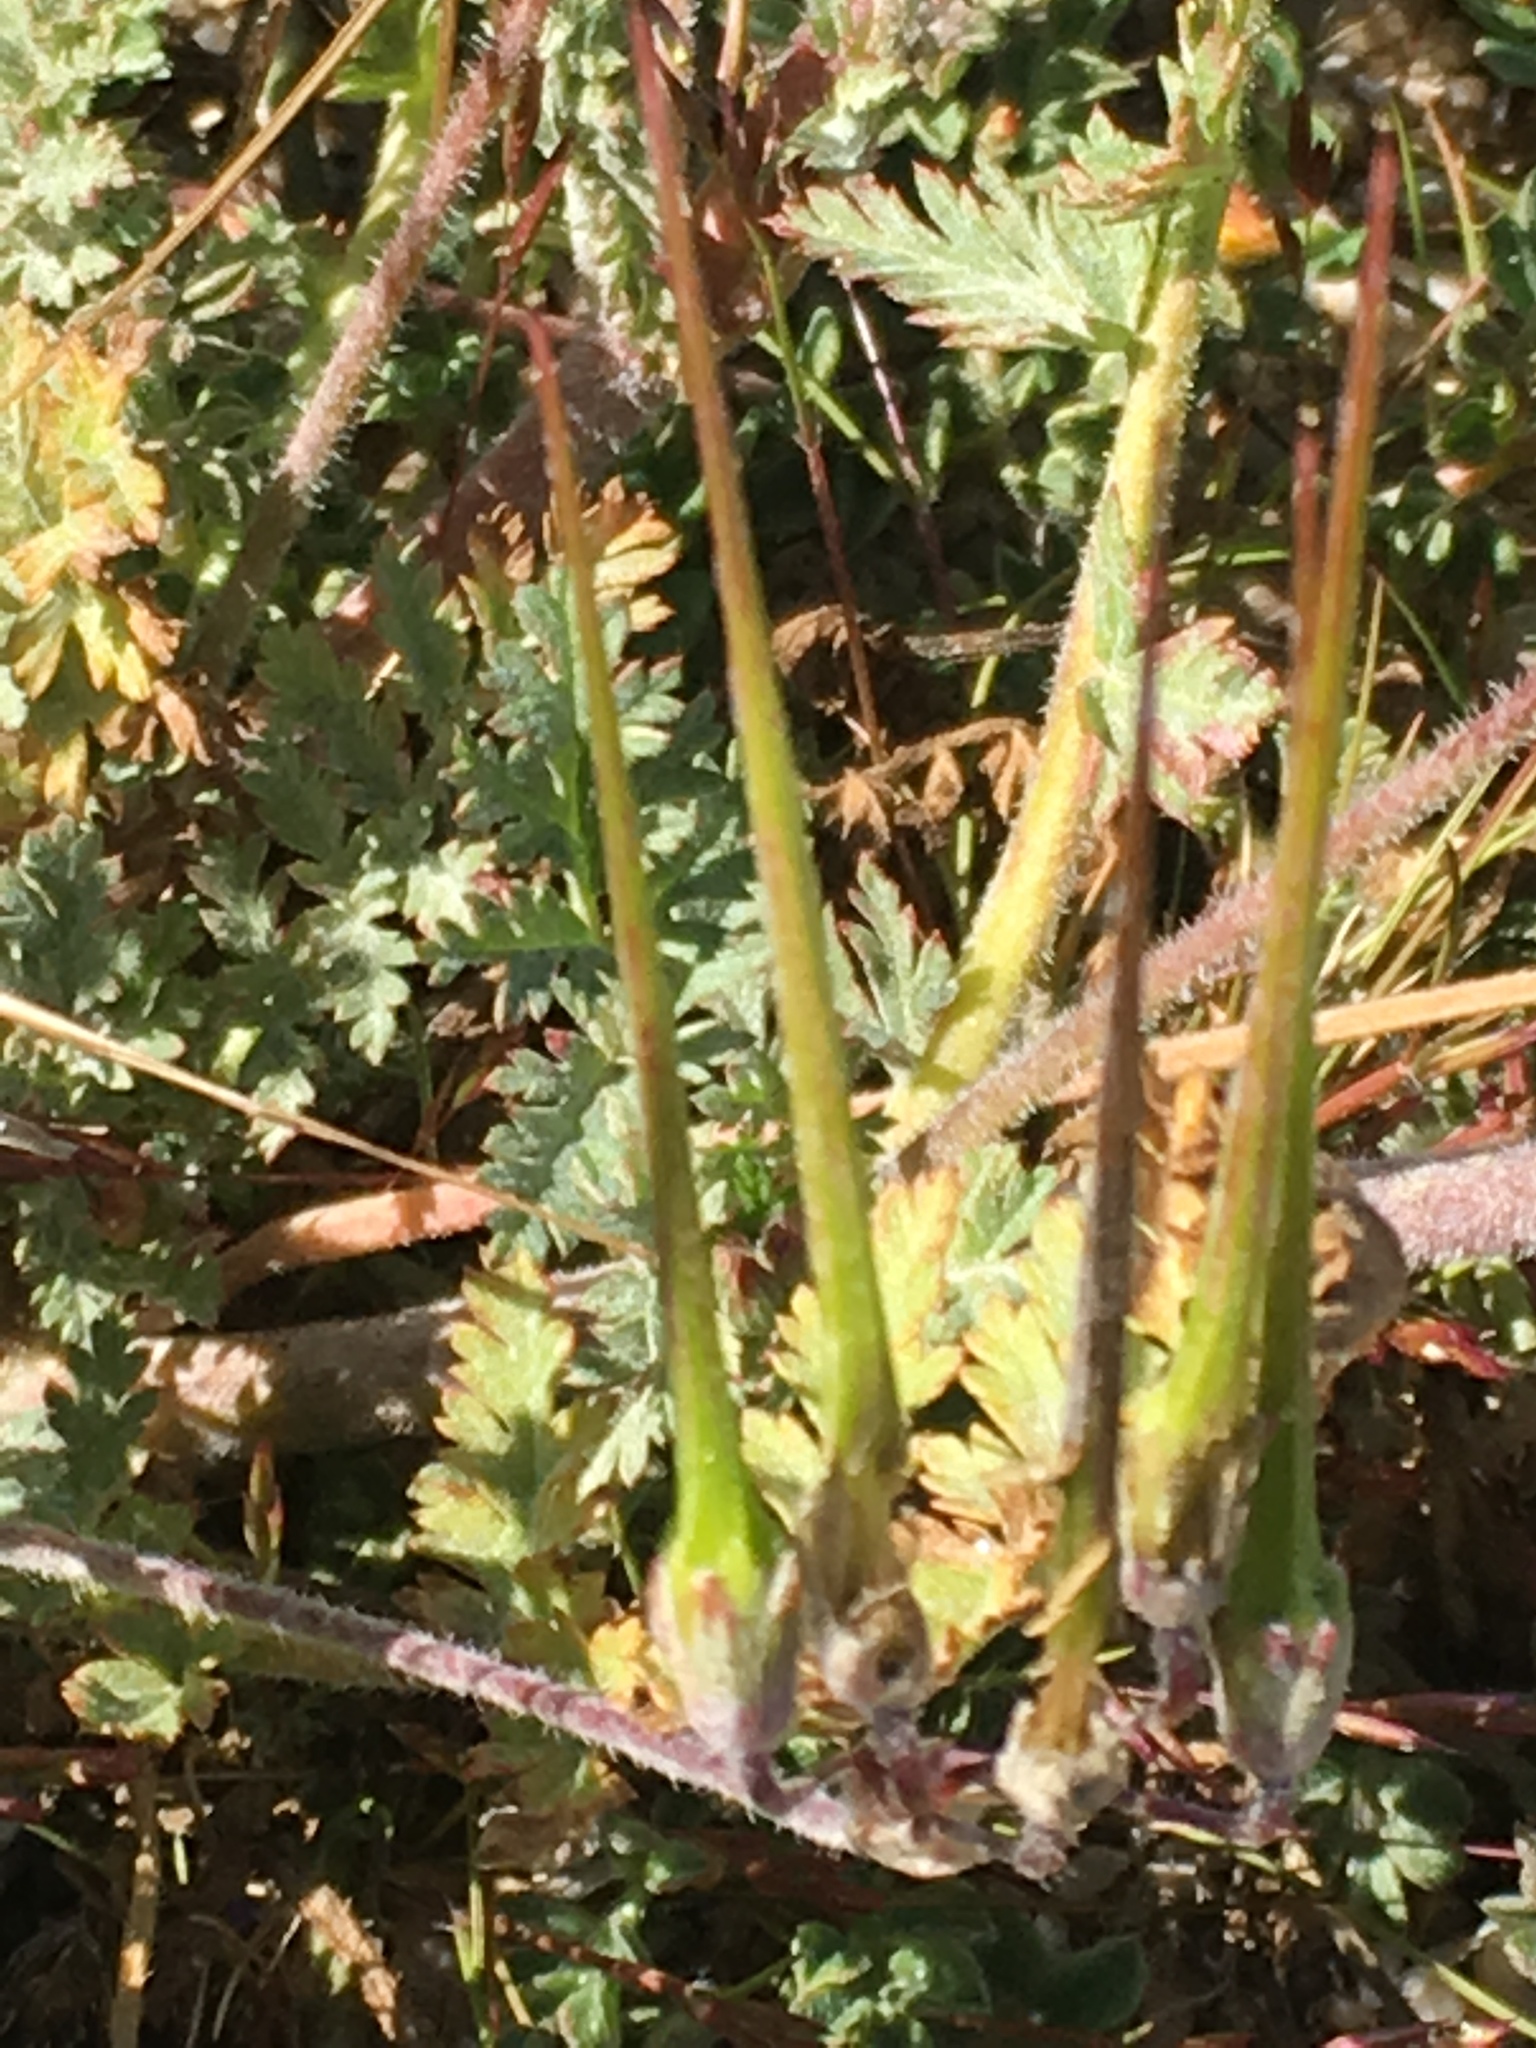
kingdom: Plantae
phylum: Tracheophyta
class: Magnoliopsida
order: Geraniales
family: Geraniaceae
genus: Erodium
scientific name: Erodium cicutarium
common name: Common stork's-bill
